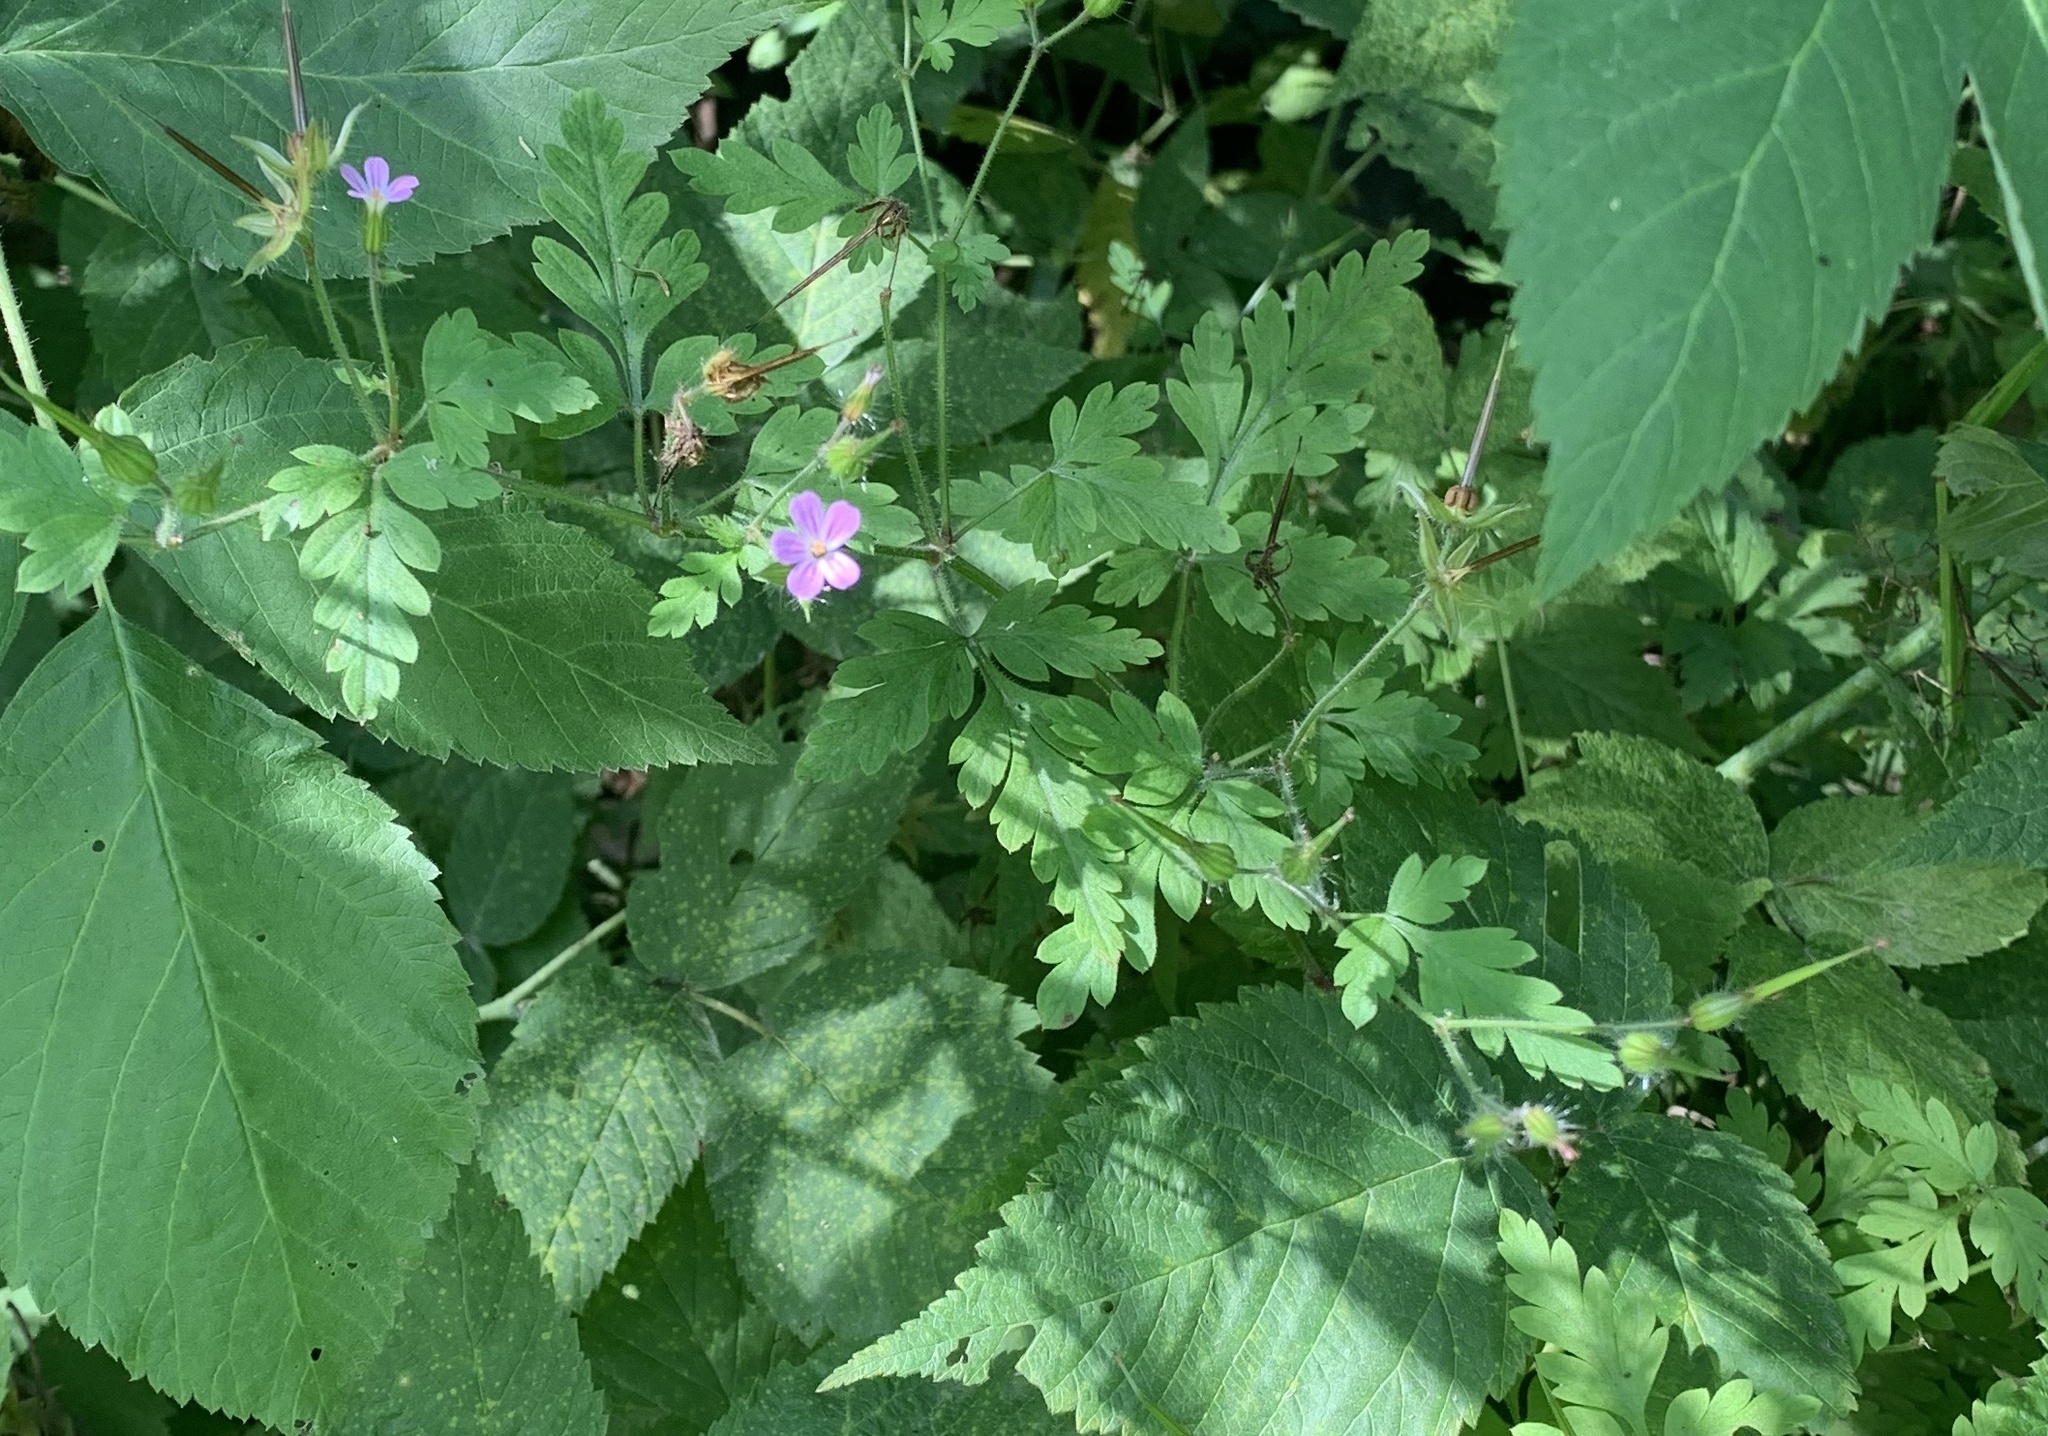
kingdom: Plantae
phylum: Tracheophyta
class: Magnoliopsida
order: Geraniales
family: Geraniaceae
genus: Geranium
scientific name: Geranium robertianum
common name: Herb-robert
